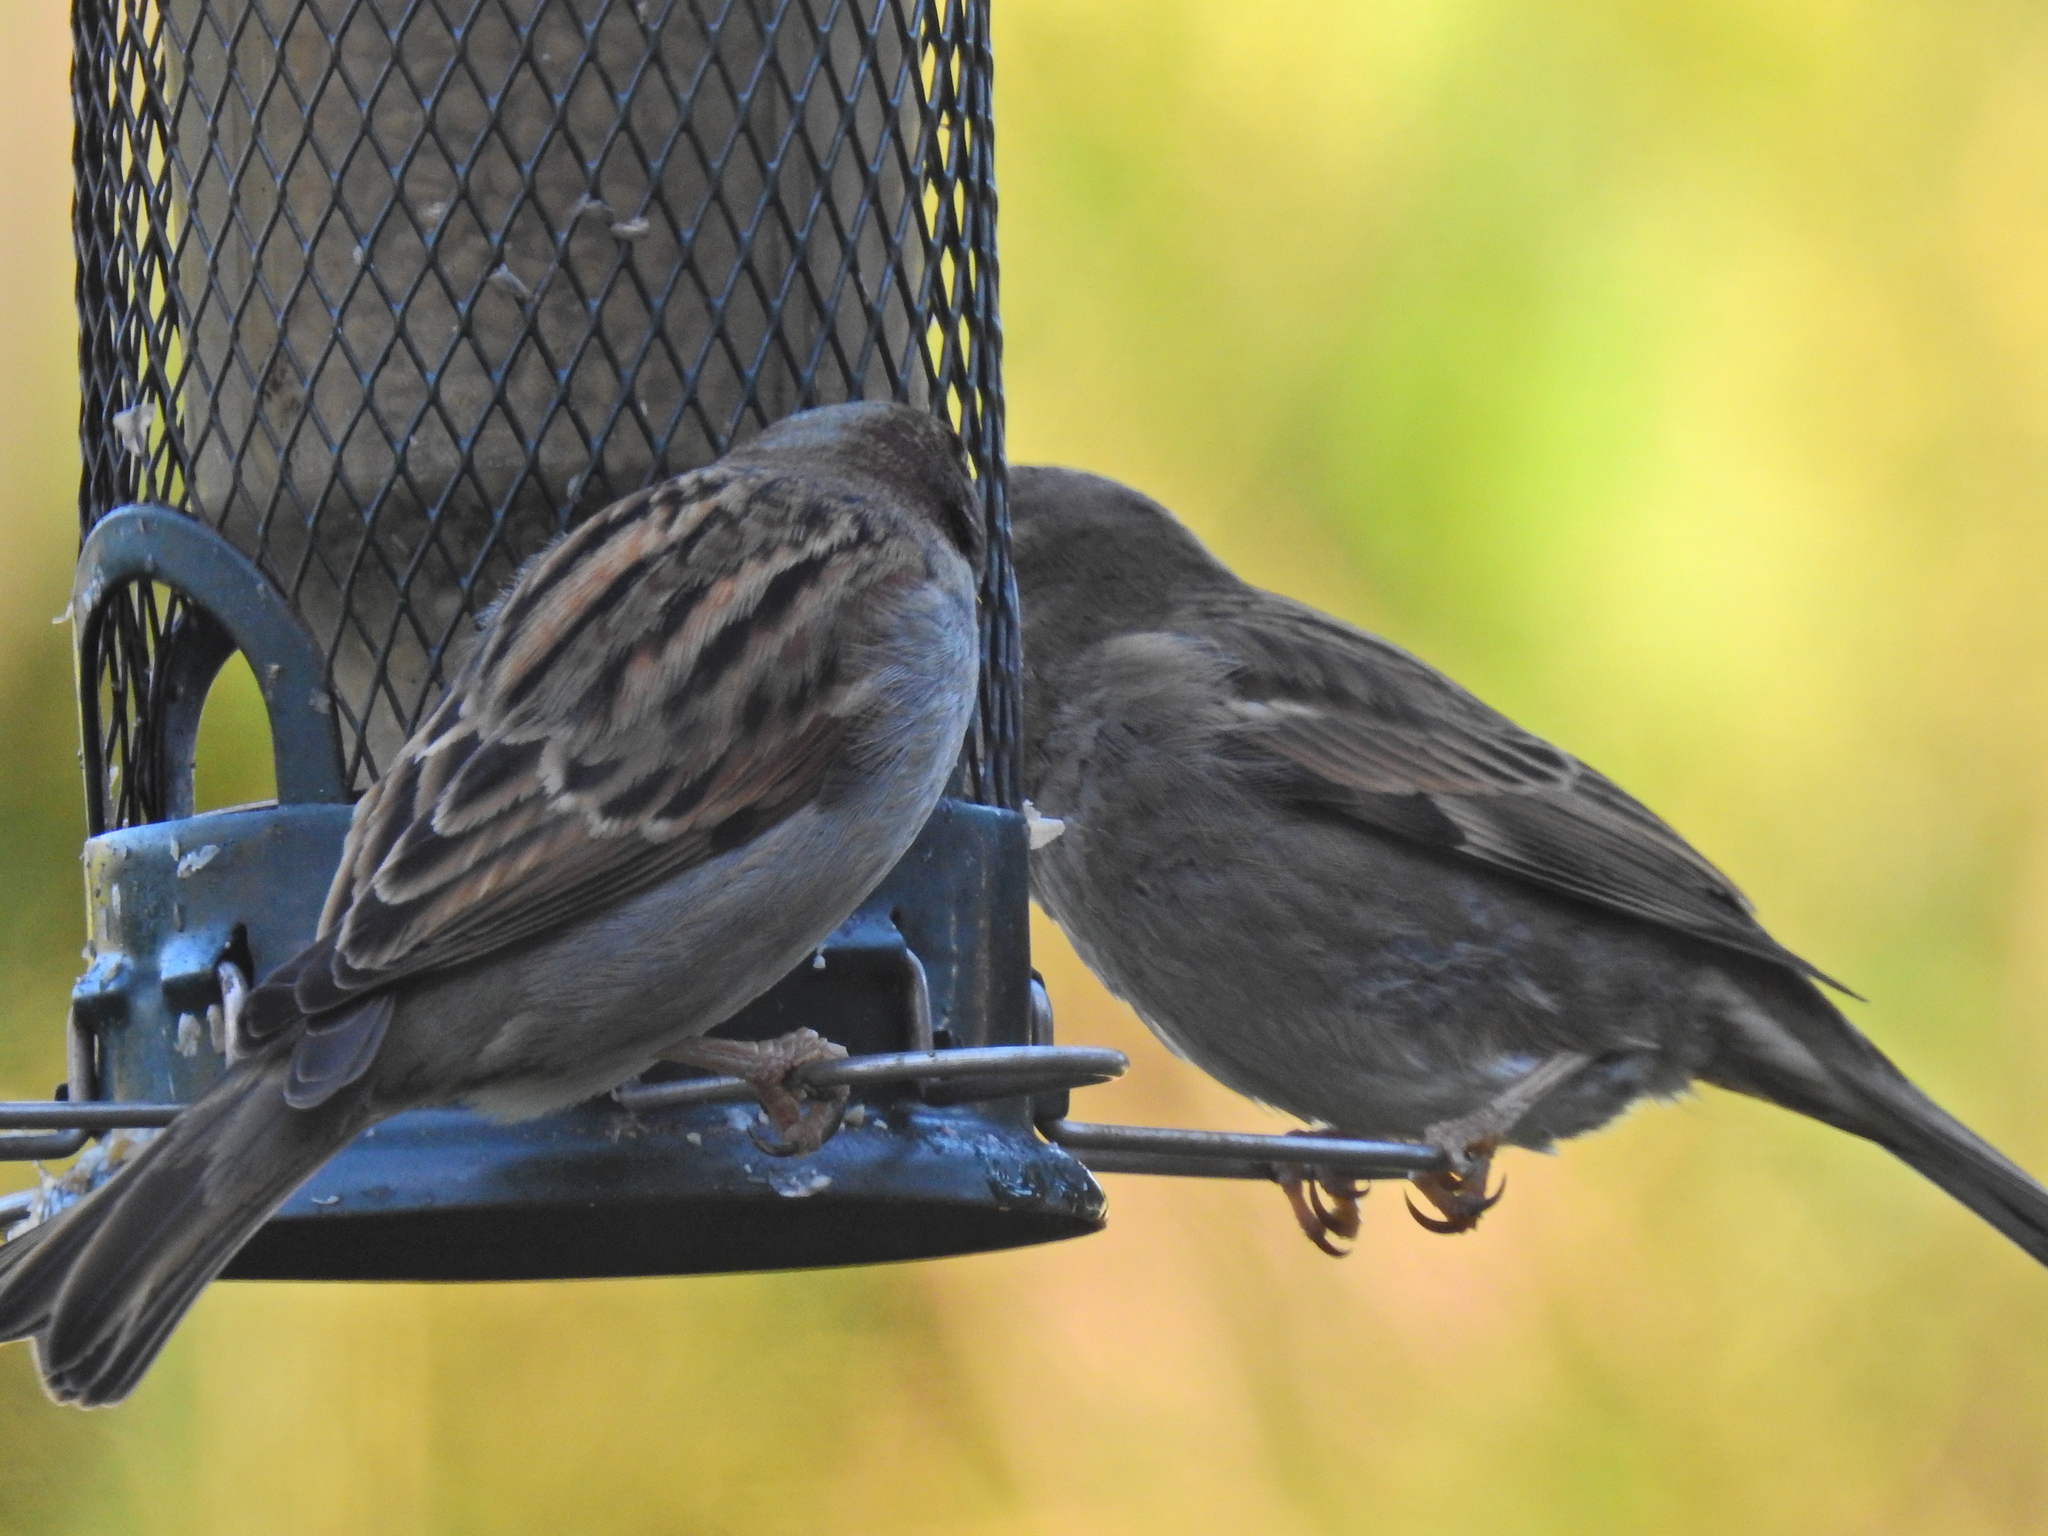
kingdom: Animalia
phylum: Chordata
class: Aves
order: Passeriformes
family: Passeridae
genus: Passer
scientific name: Passer domesticus
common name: House sparrow
